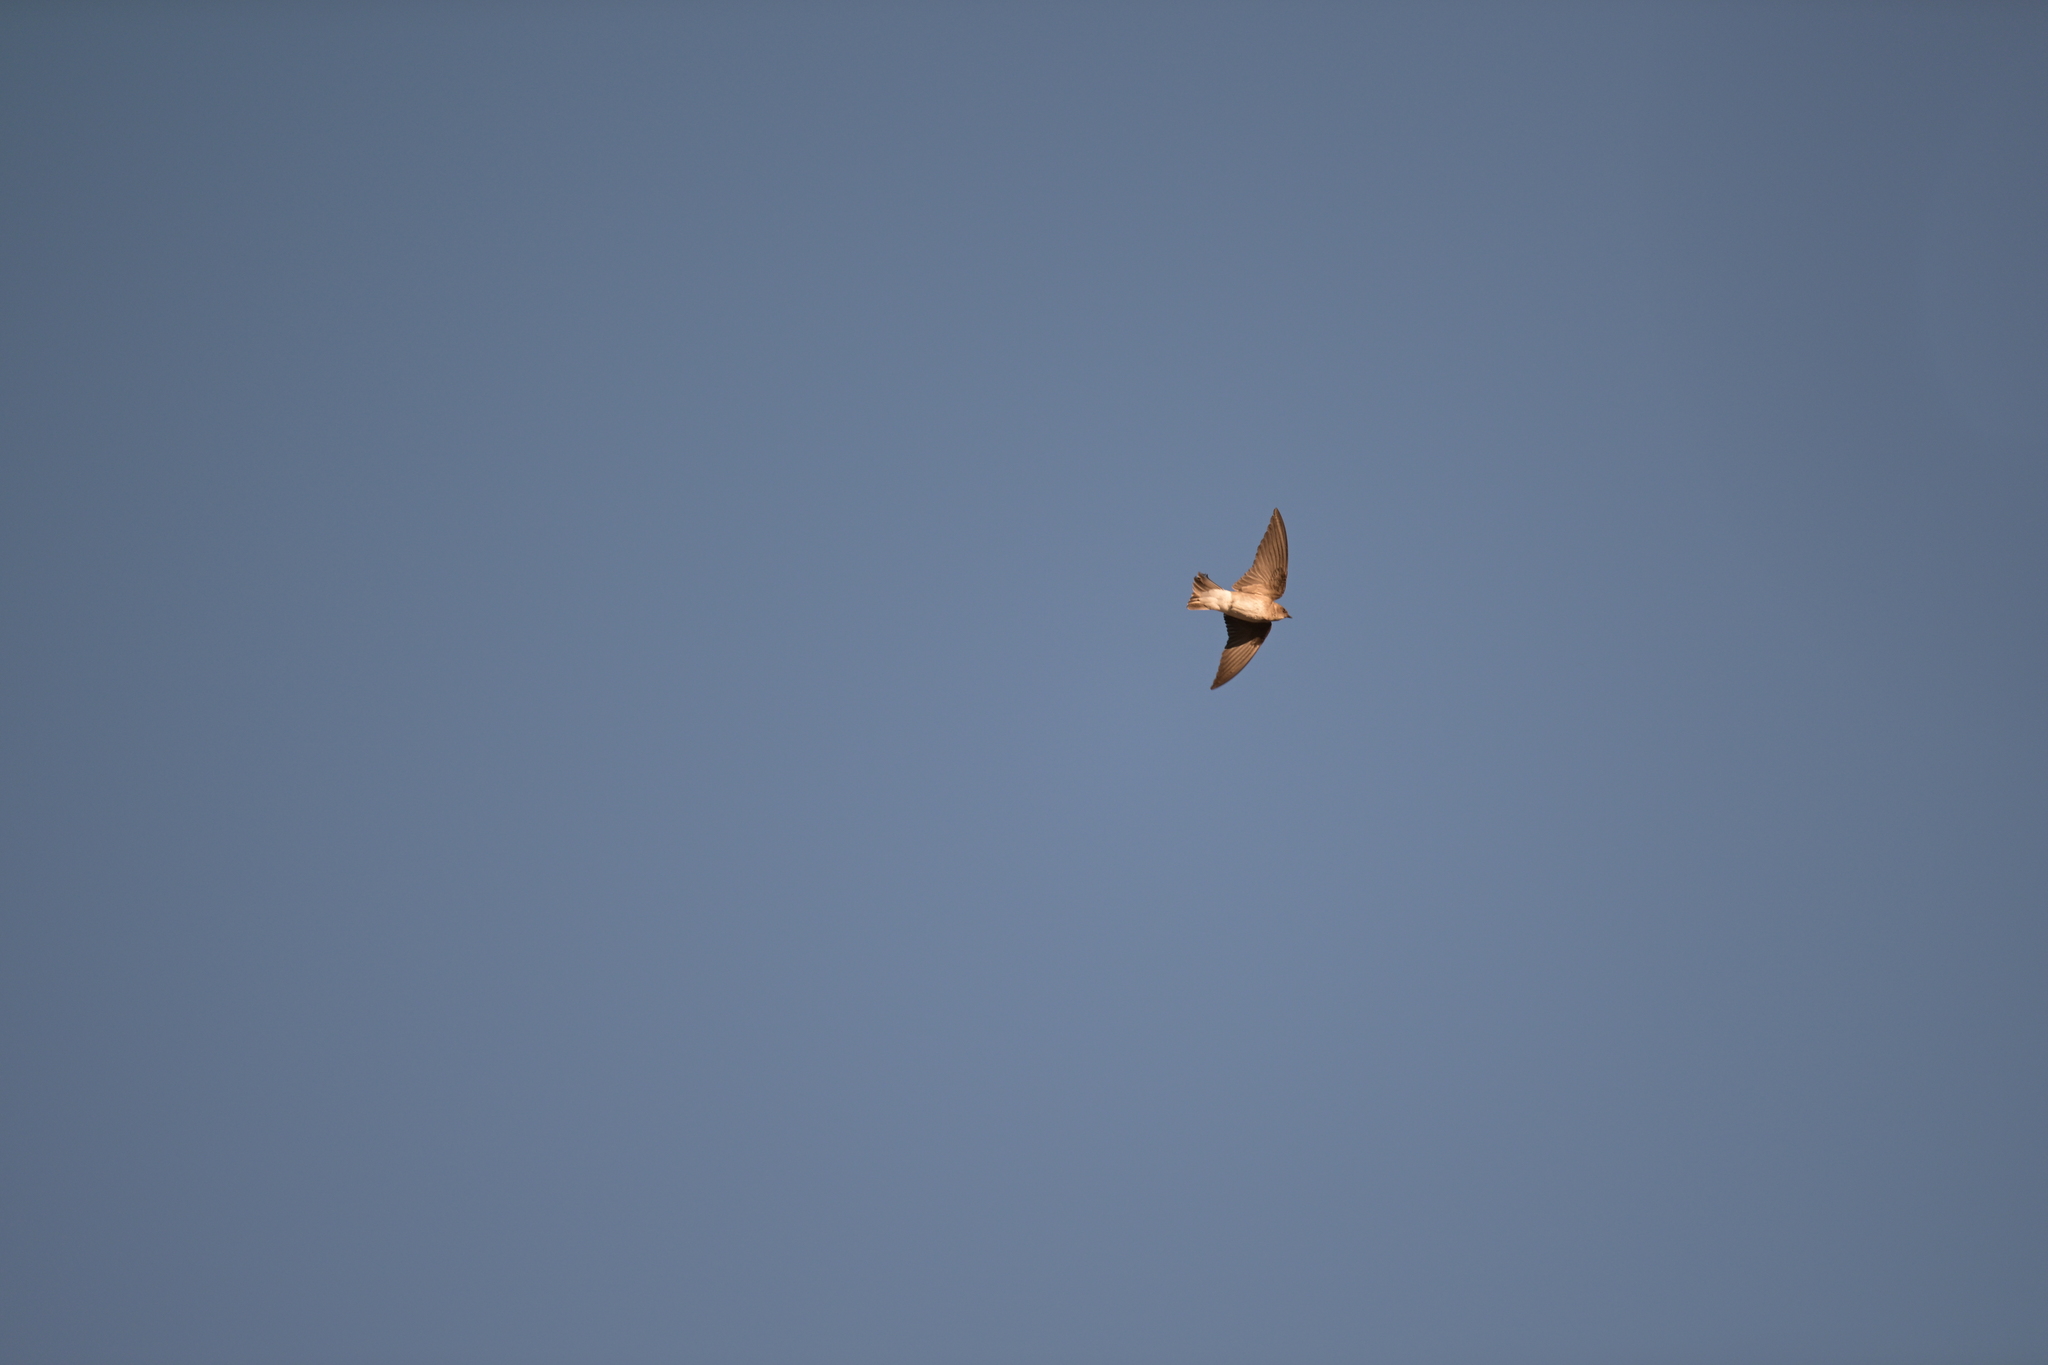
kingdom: Animalia
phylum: Chordata
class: Aves
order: Passeriformes
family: Hirundinidae
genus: Stelgidopteryx
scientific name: Stelgidopteryx serripennis
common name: Northern rough-winged swallow
